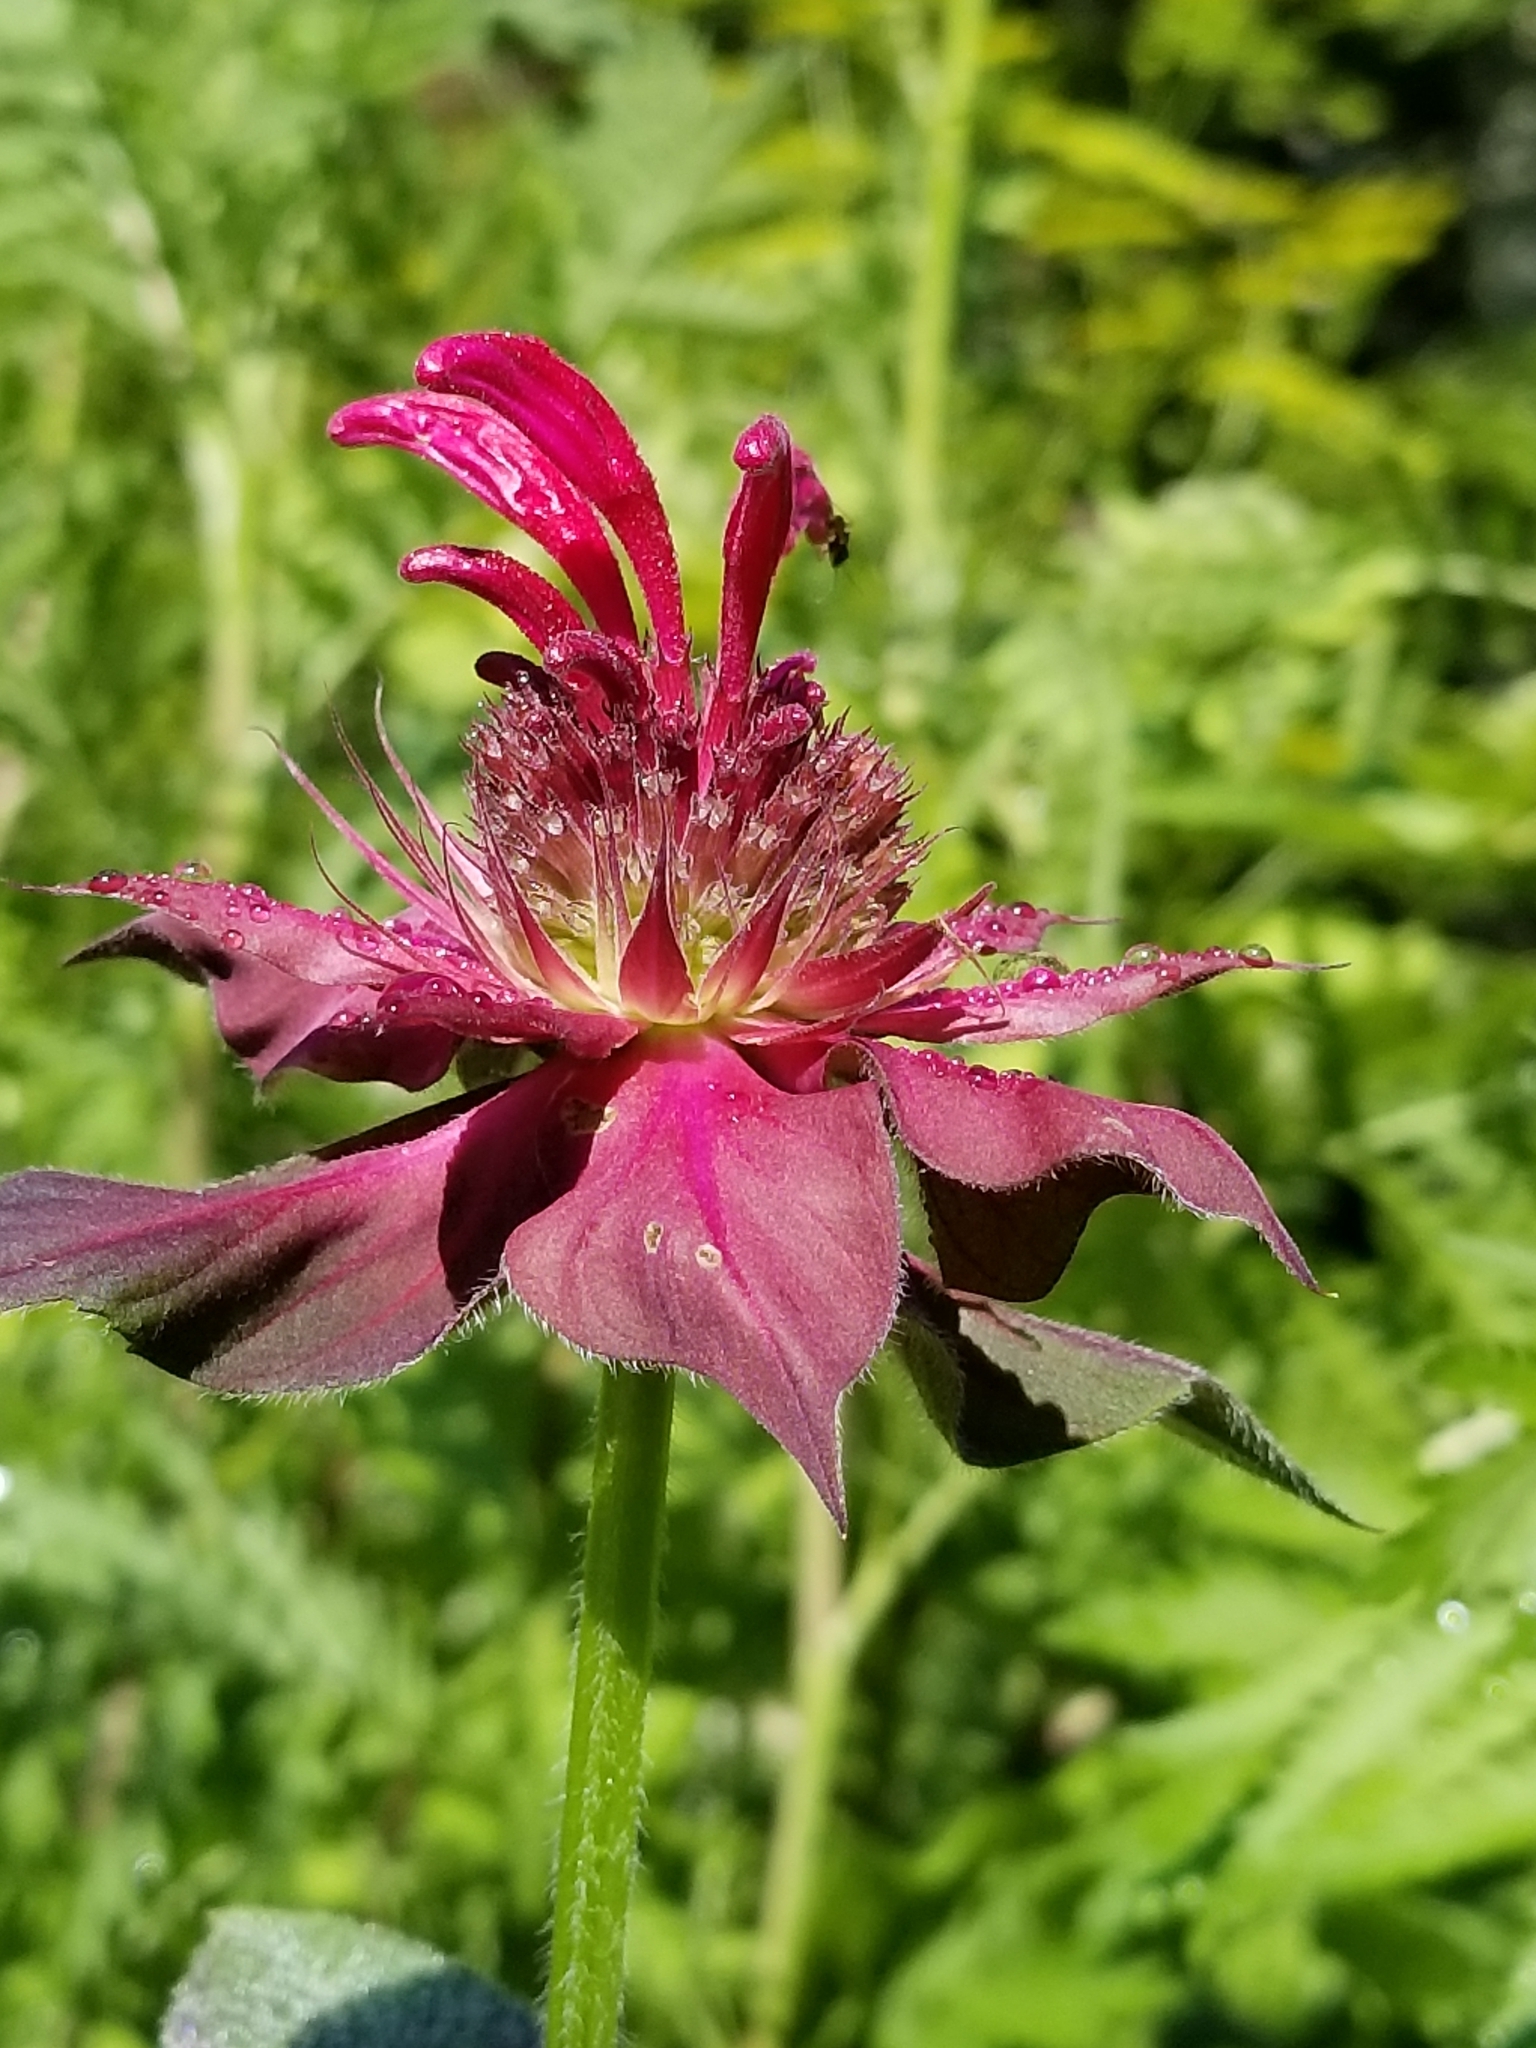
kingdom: Plantae
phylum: Tracheophyta
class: Magnoliopsida
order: Lamiales
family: Lamiaceae
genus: Monarda
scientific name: Monarda didyma
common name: Beebalm
